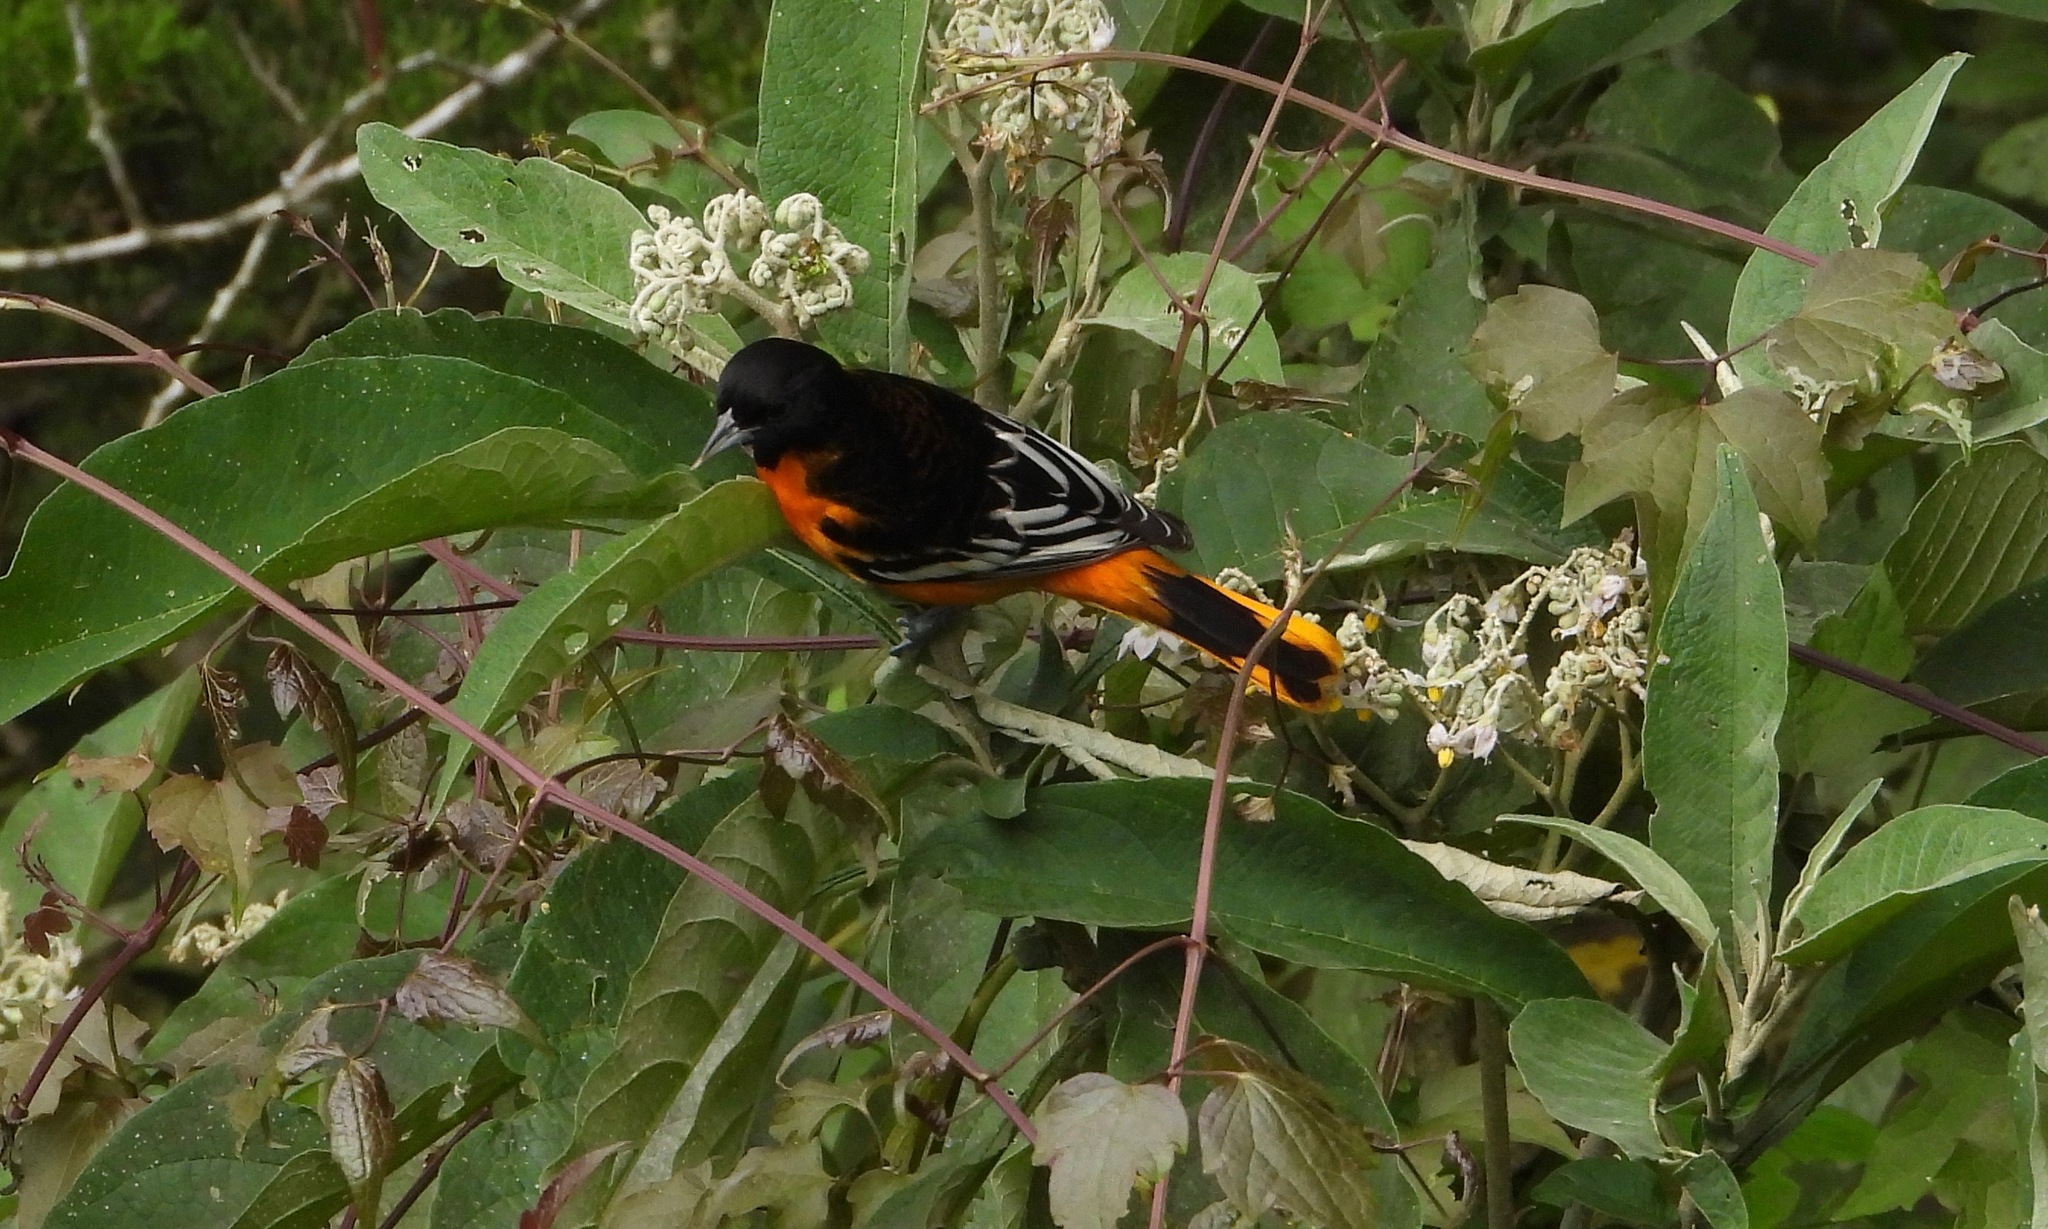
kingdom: Animalia
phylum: Chordata
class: Aves
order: Passeriformes
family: Icteridae
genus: Icterus
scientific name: Icterus galbula
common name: Baltimore oriole
